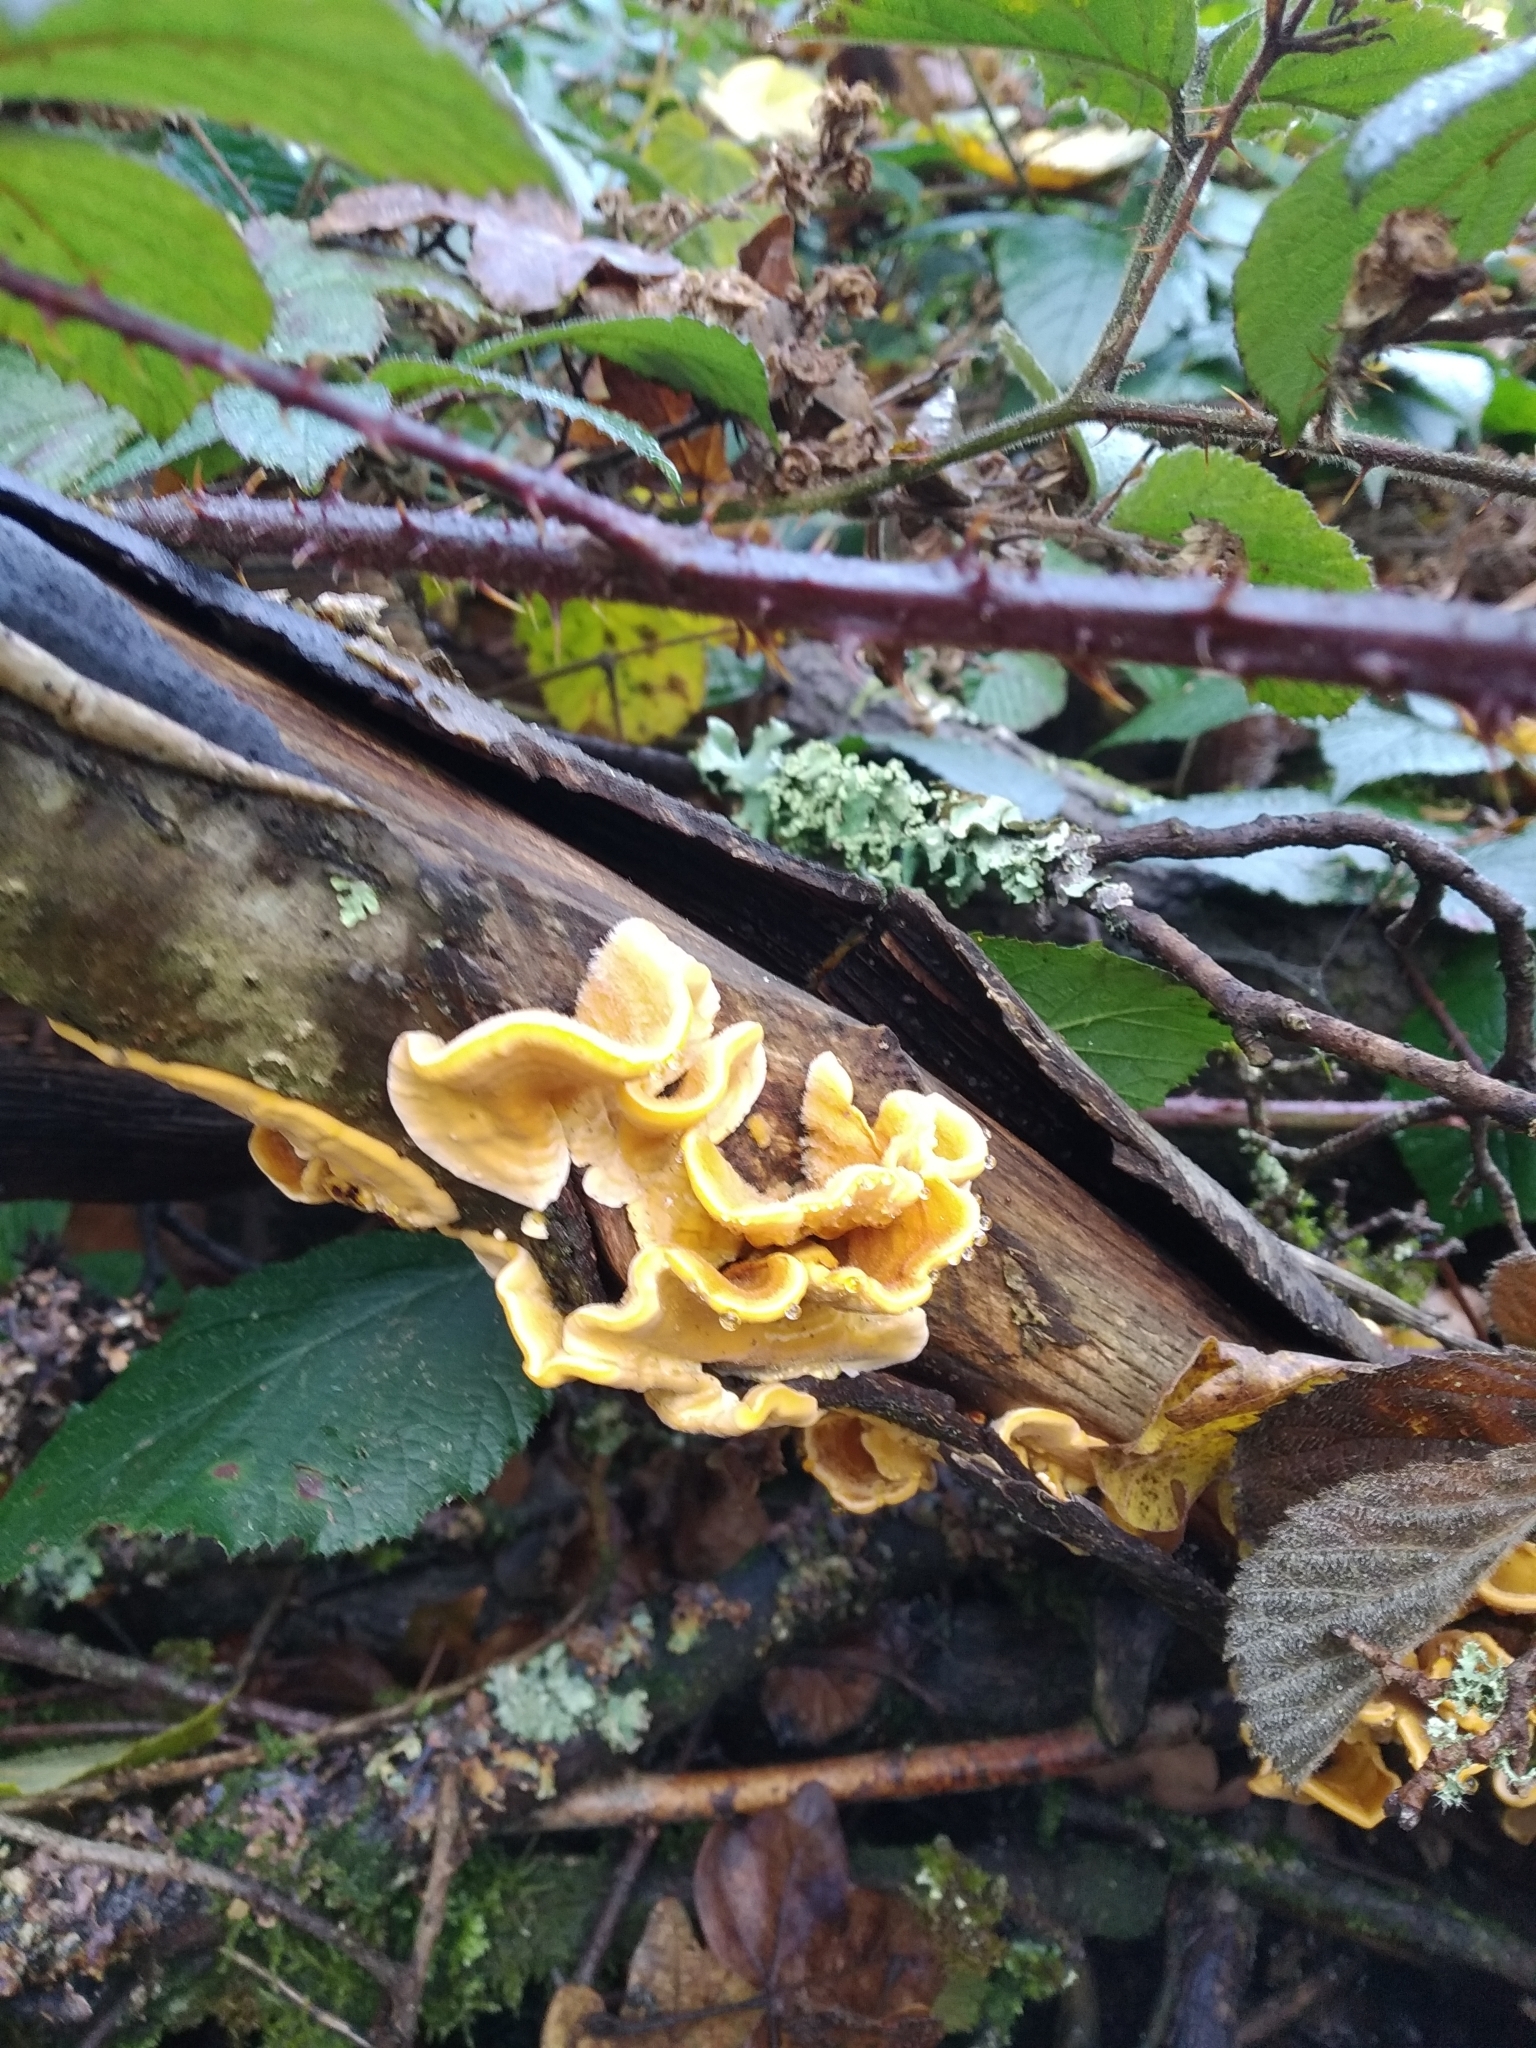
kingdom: Fungi
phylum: Basidiomycota
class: Agaricomycetes
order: Russulales
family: Stereaceae
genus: Stereum
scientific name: Stereum hirsutum
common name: Hairy curtain crust
